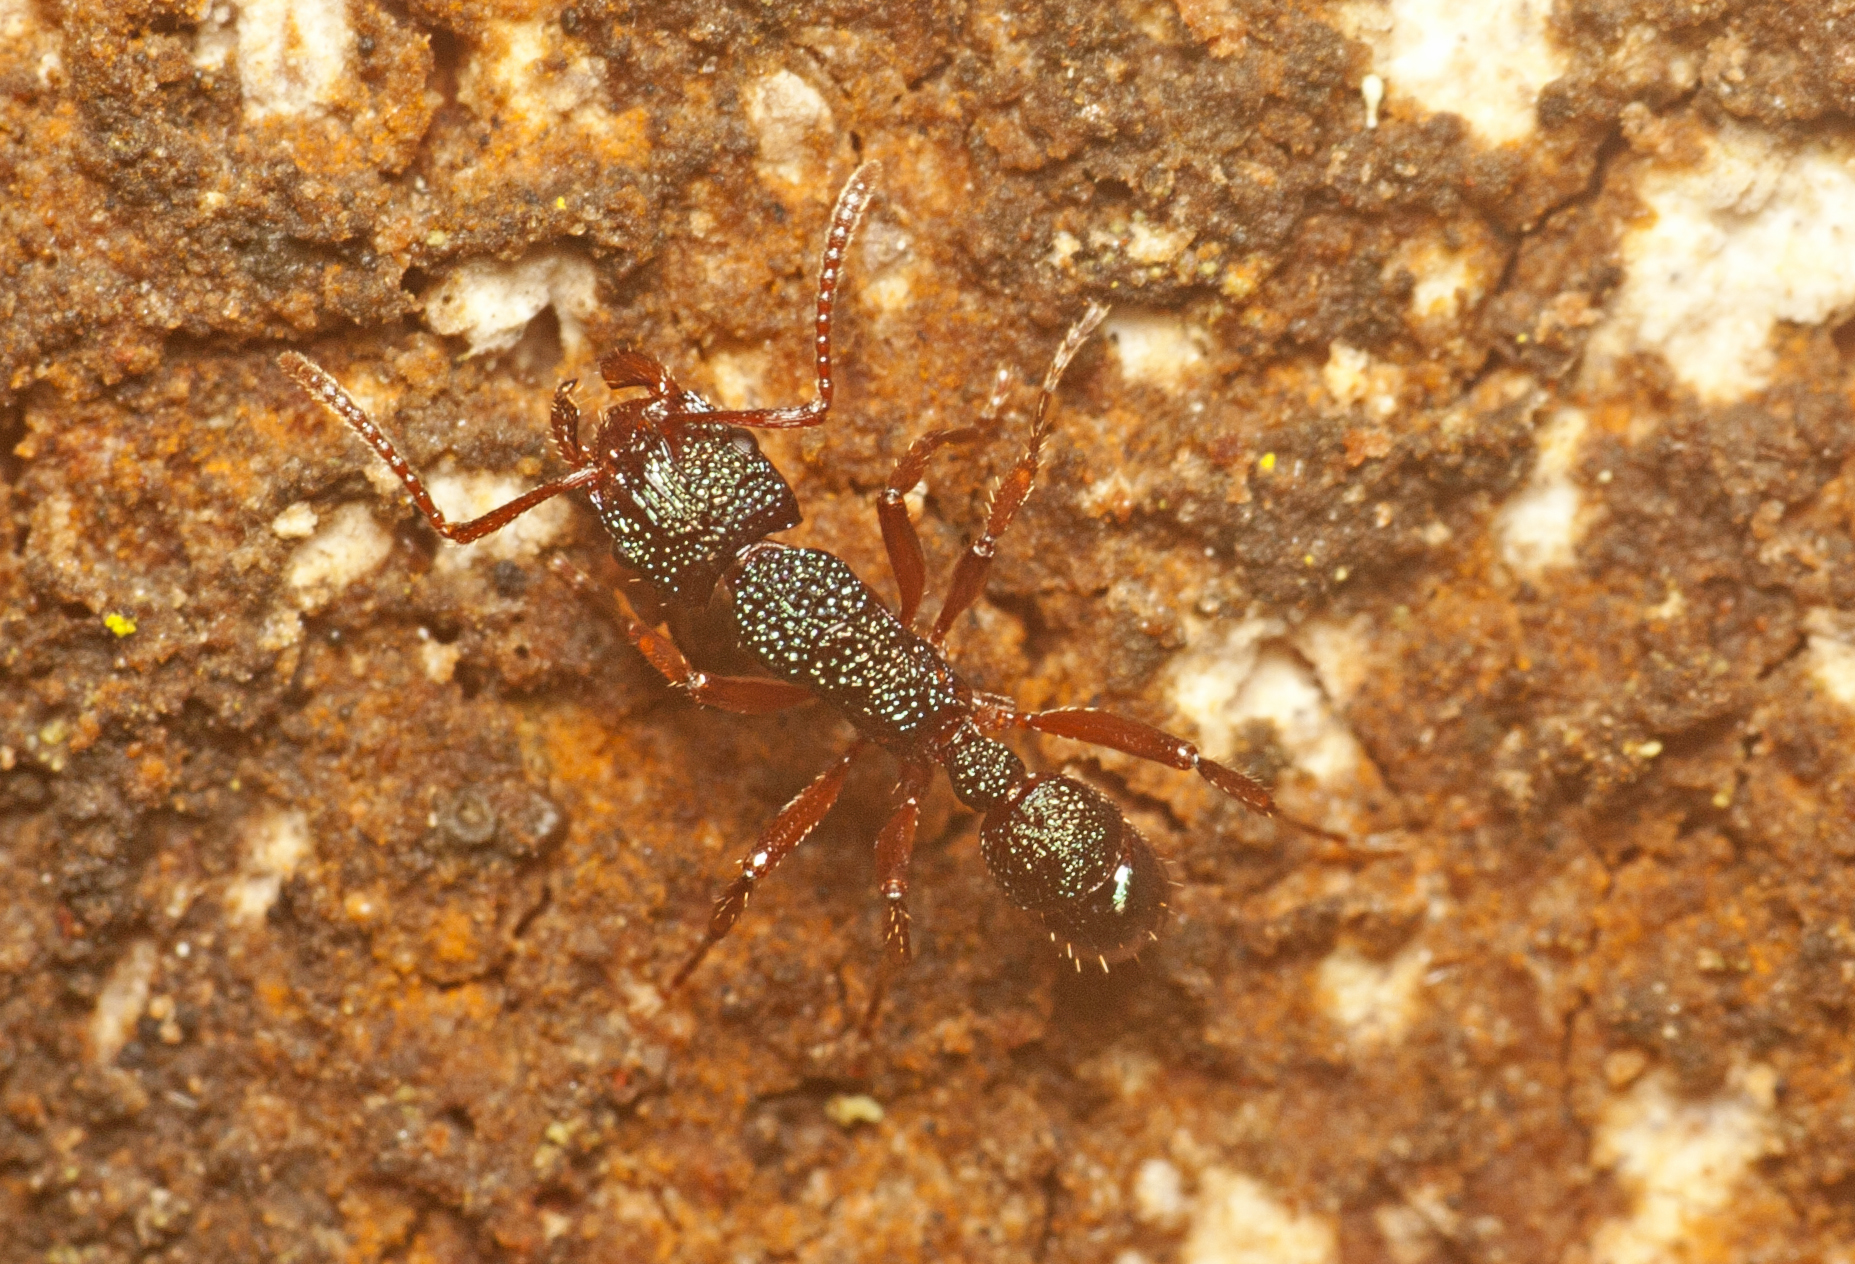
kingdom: Animalia
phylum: Arthropoda
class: Insecta
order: Hymenoptera
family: Formicidae
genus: Rhytidoponera
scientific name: Rhytidoponera scabrior
